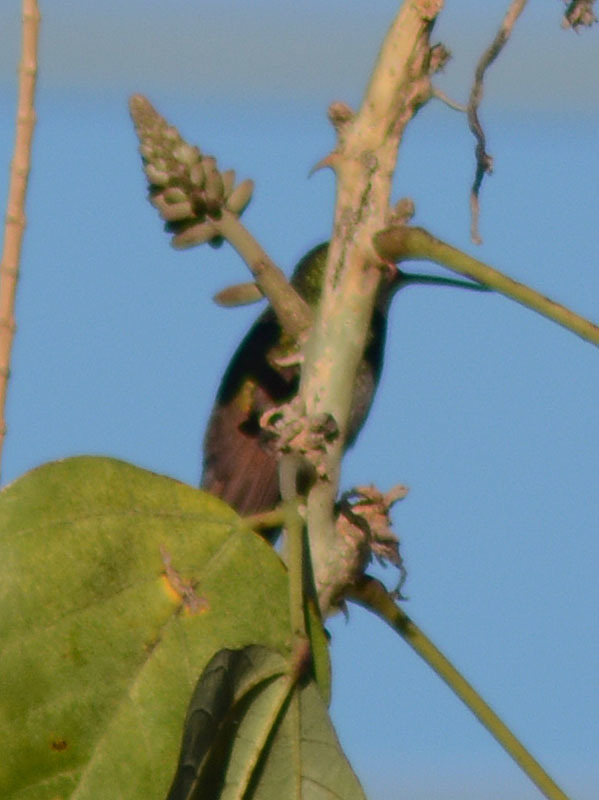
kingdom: Animalia
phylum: Chordata
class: Aves
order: Apodiformes
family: Trochilidae
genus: Saucerottia
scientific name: Saucerottia beryllina
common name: Berylline hummingbird
